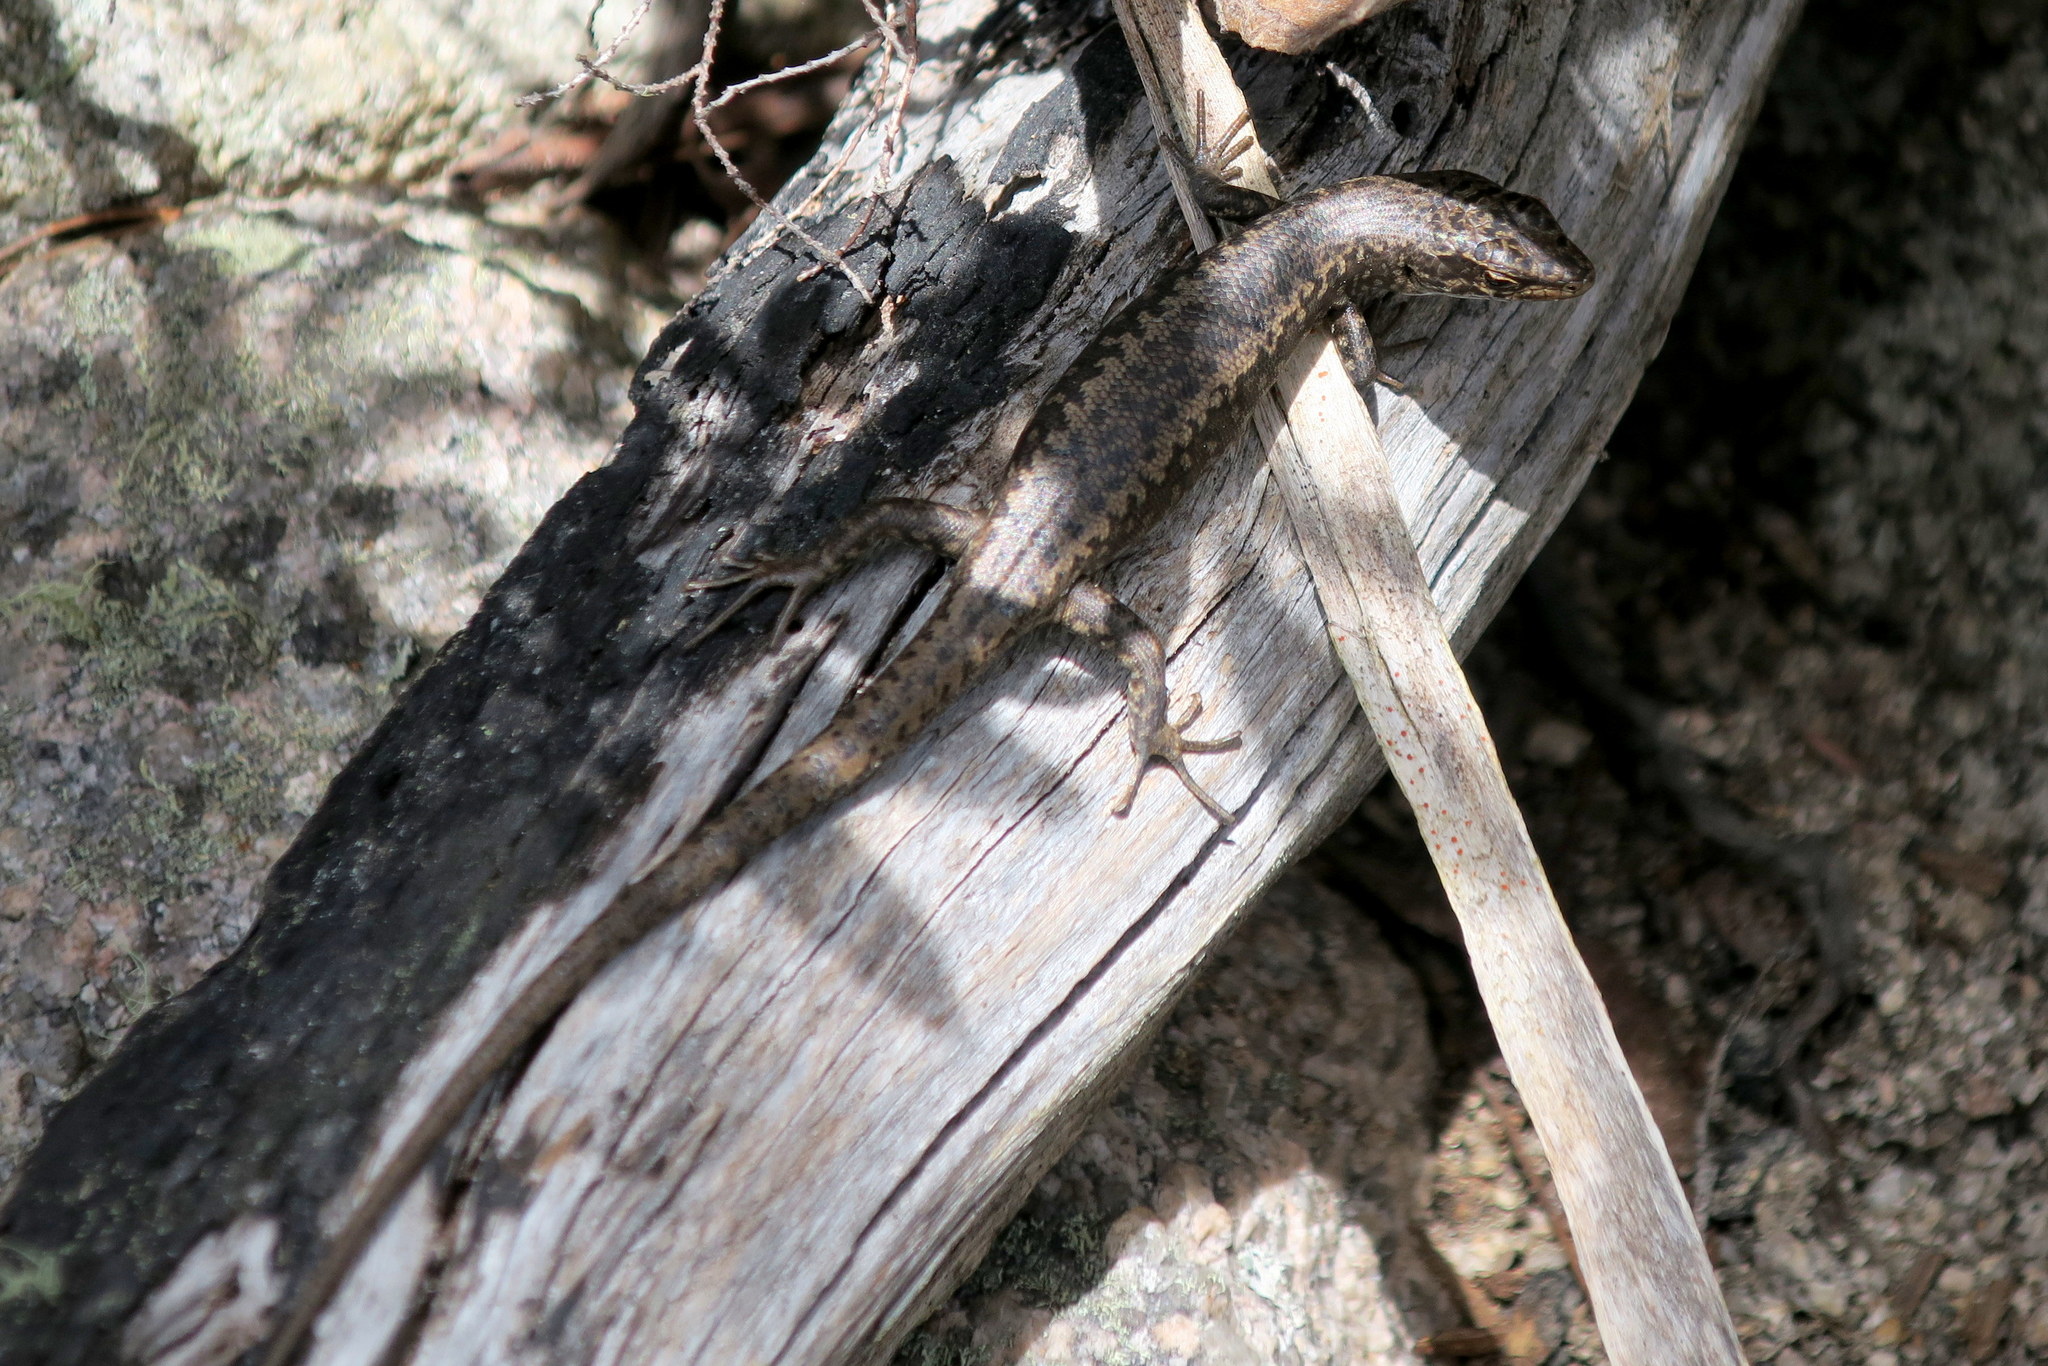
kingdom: Animalia
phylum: Chordata
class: Squamata
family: Scincidae
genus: Carinascincus
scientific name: Carinascincus pretiosus
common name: Agile cool-skink
